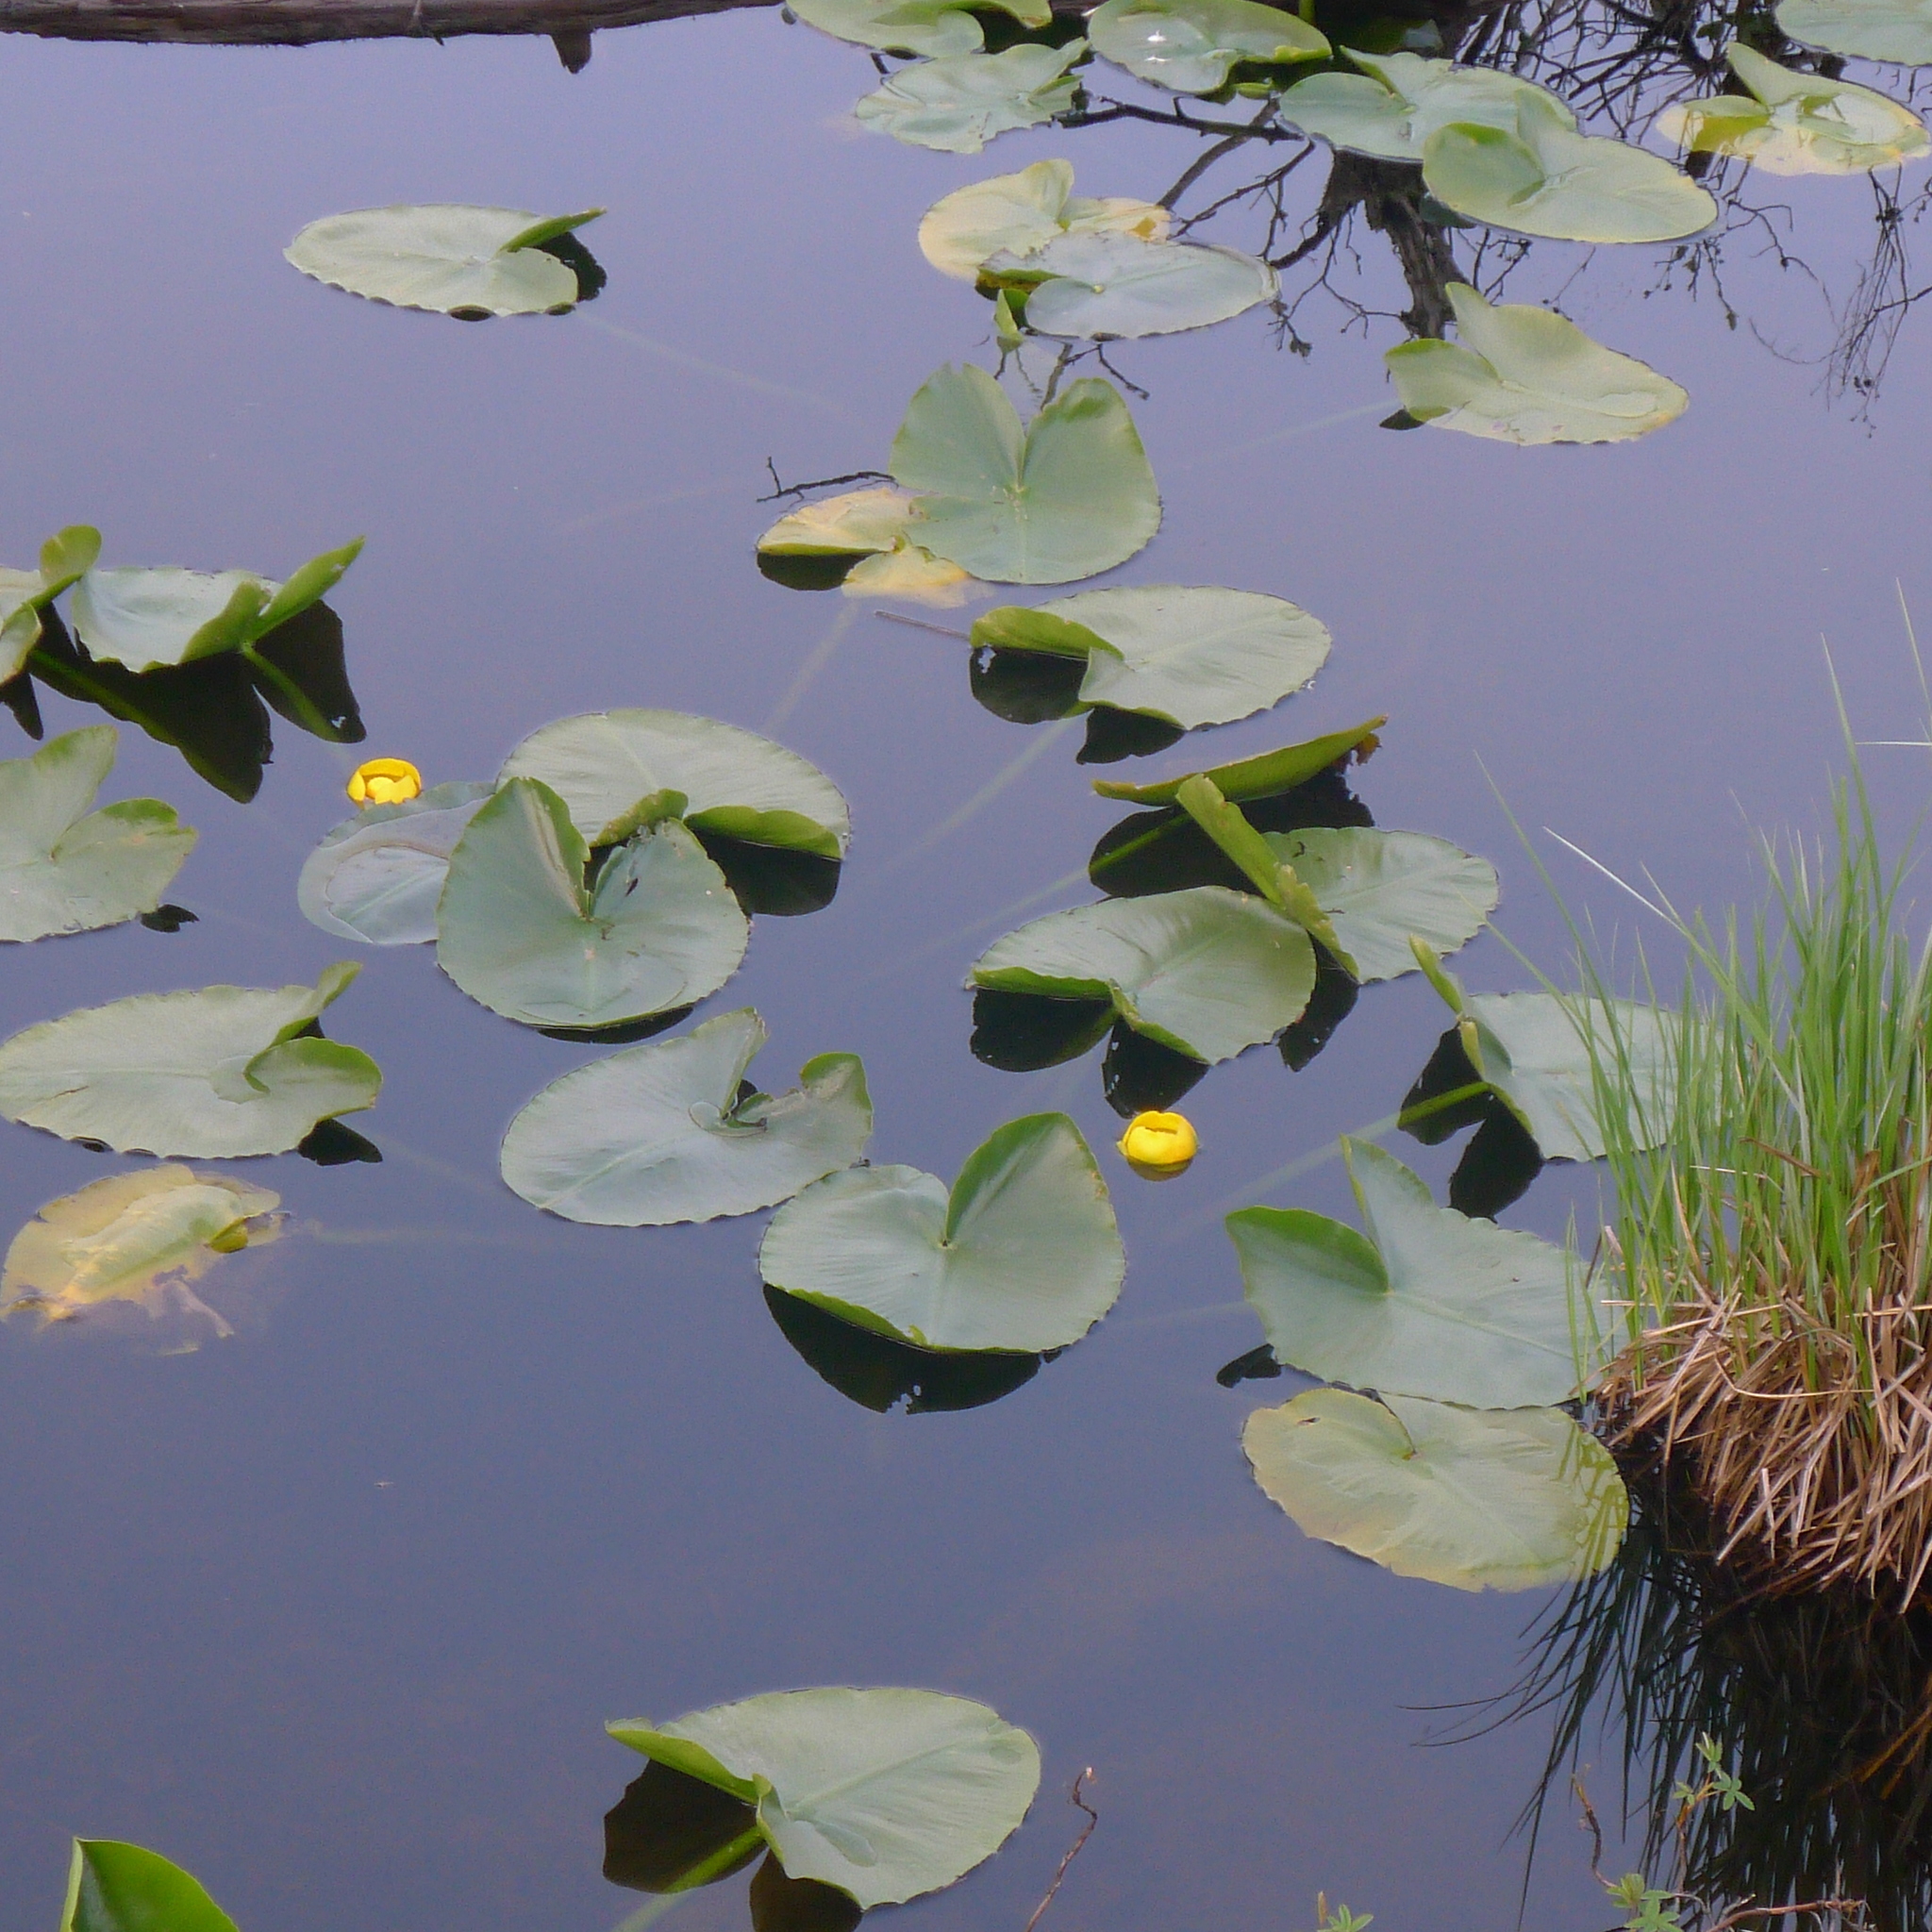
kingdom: Plantae
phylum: Tracheophyta
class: Magnoliopsida
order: Nymphaeales
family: Nymphaeaceae
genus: Nuphar
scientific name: Nuphar polysepala
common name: Rocky mountain cow-lily
